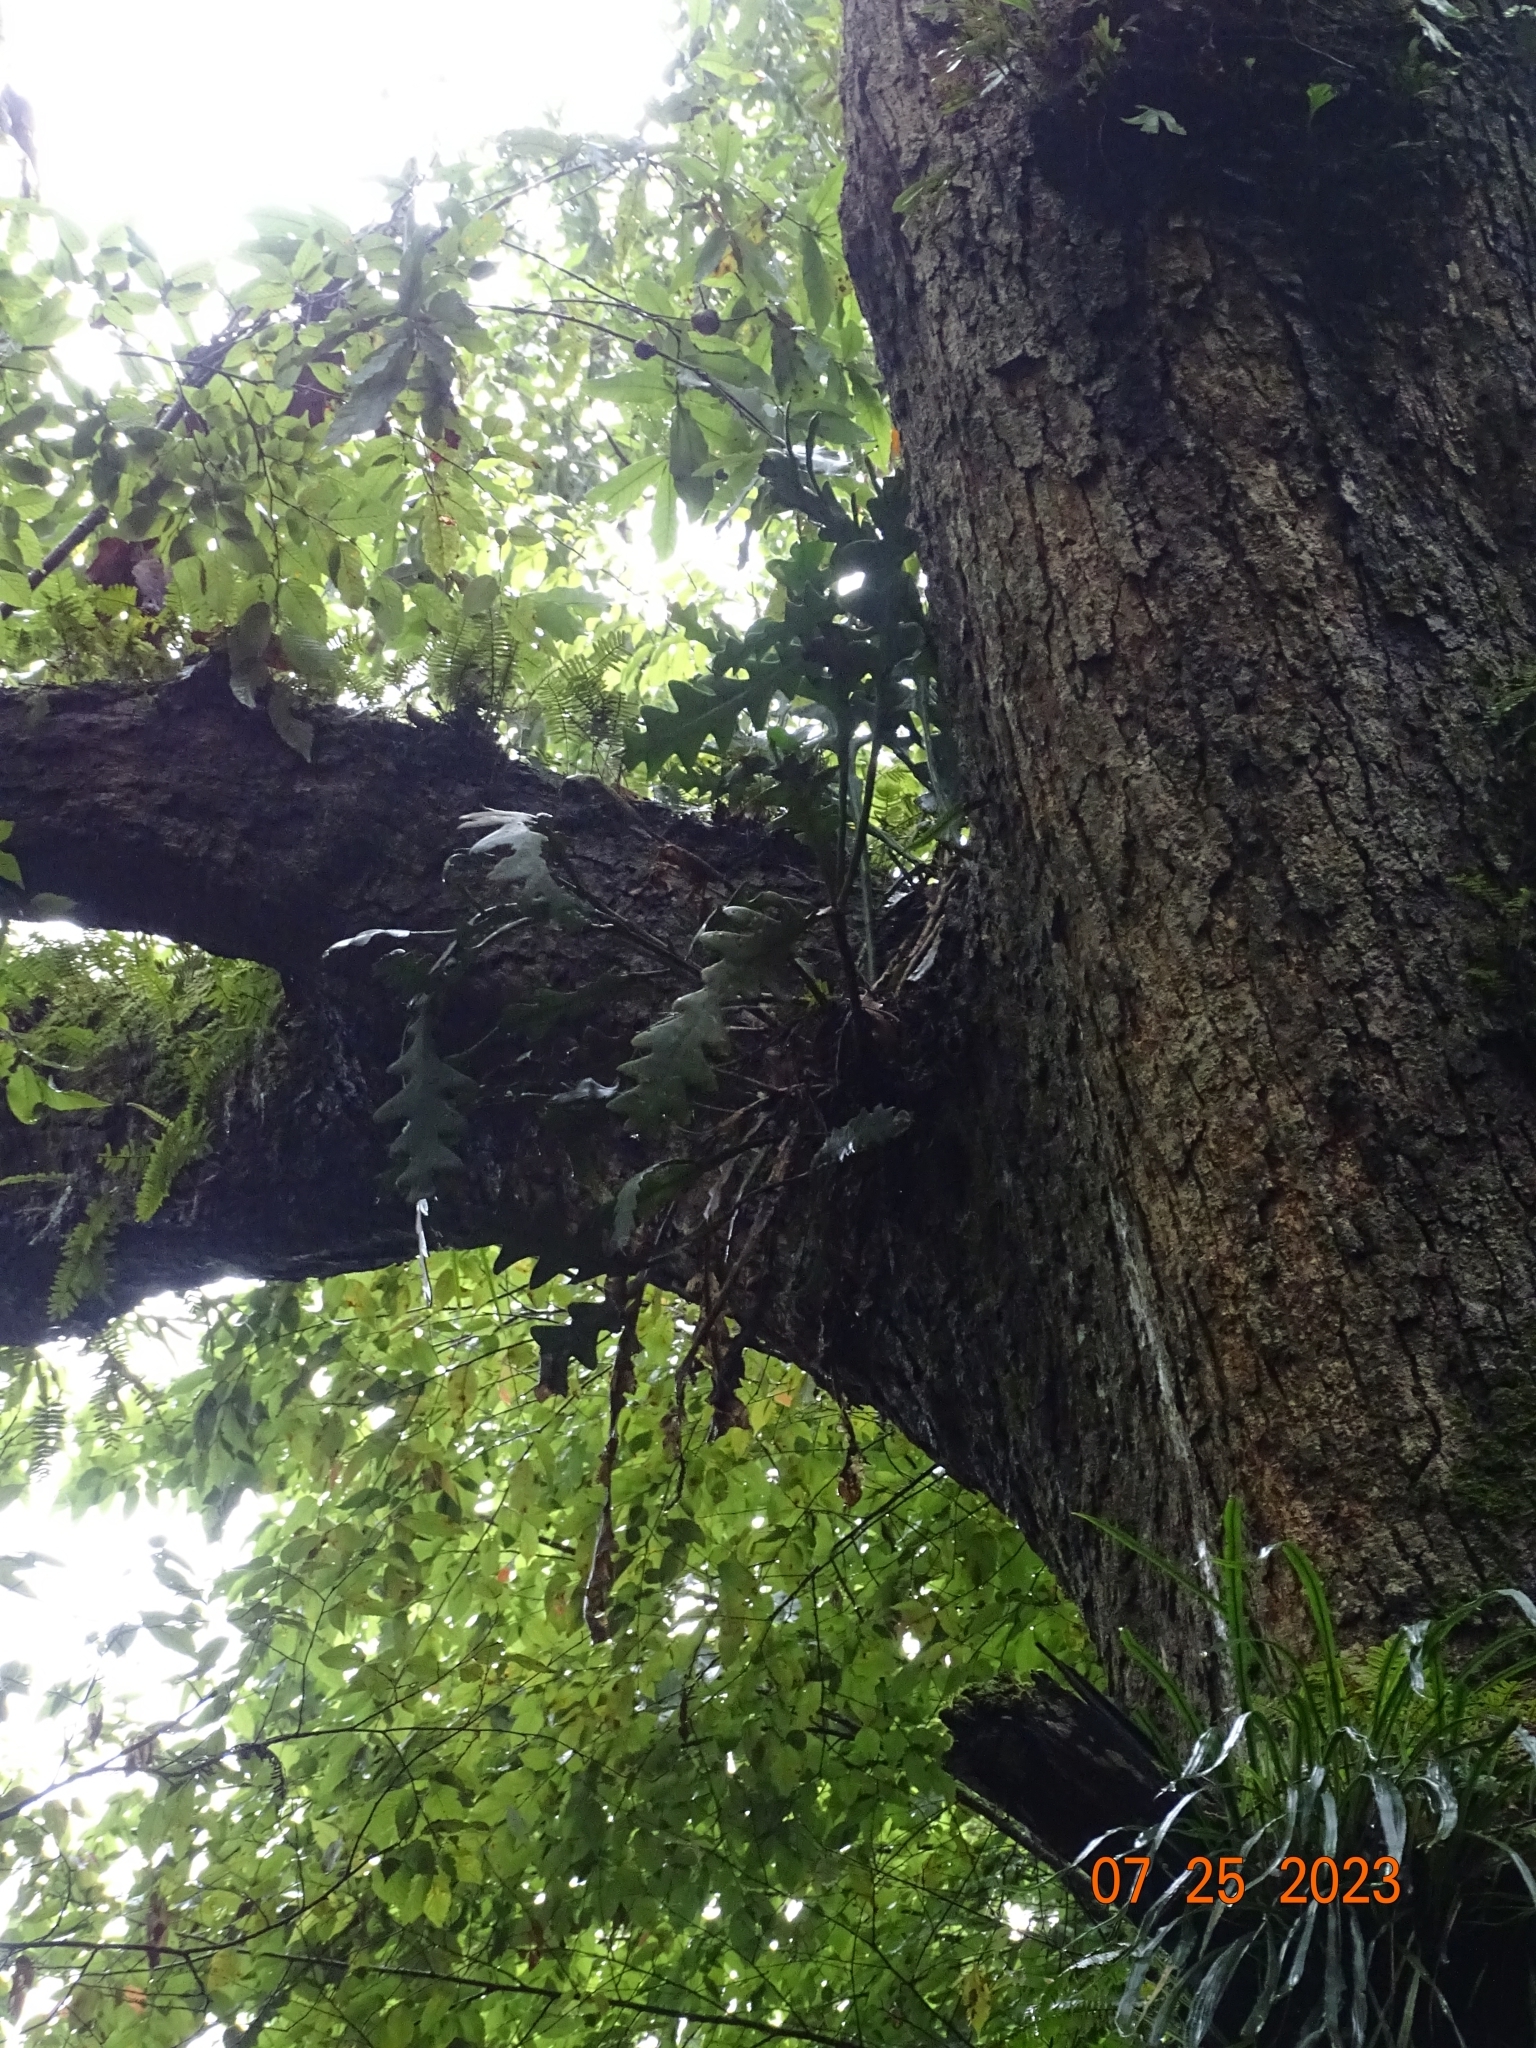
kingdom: Plantae
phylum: Tracheophyta
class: Magnoliopsida
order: Caryophyllales
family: Cactaceae
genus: Disocactus
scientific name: Disocactus anguliger
